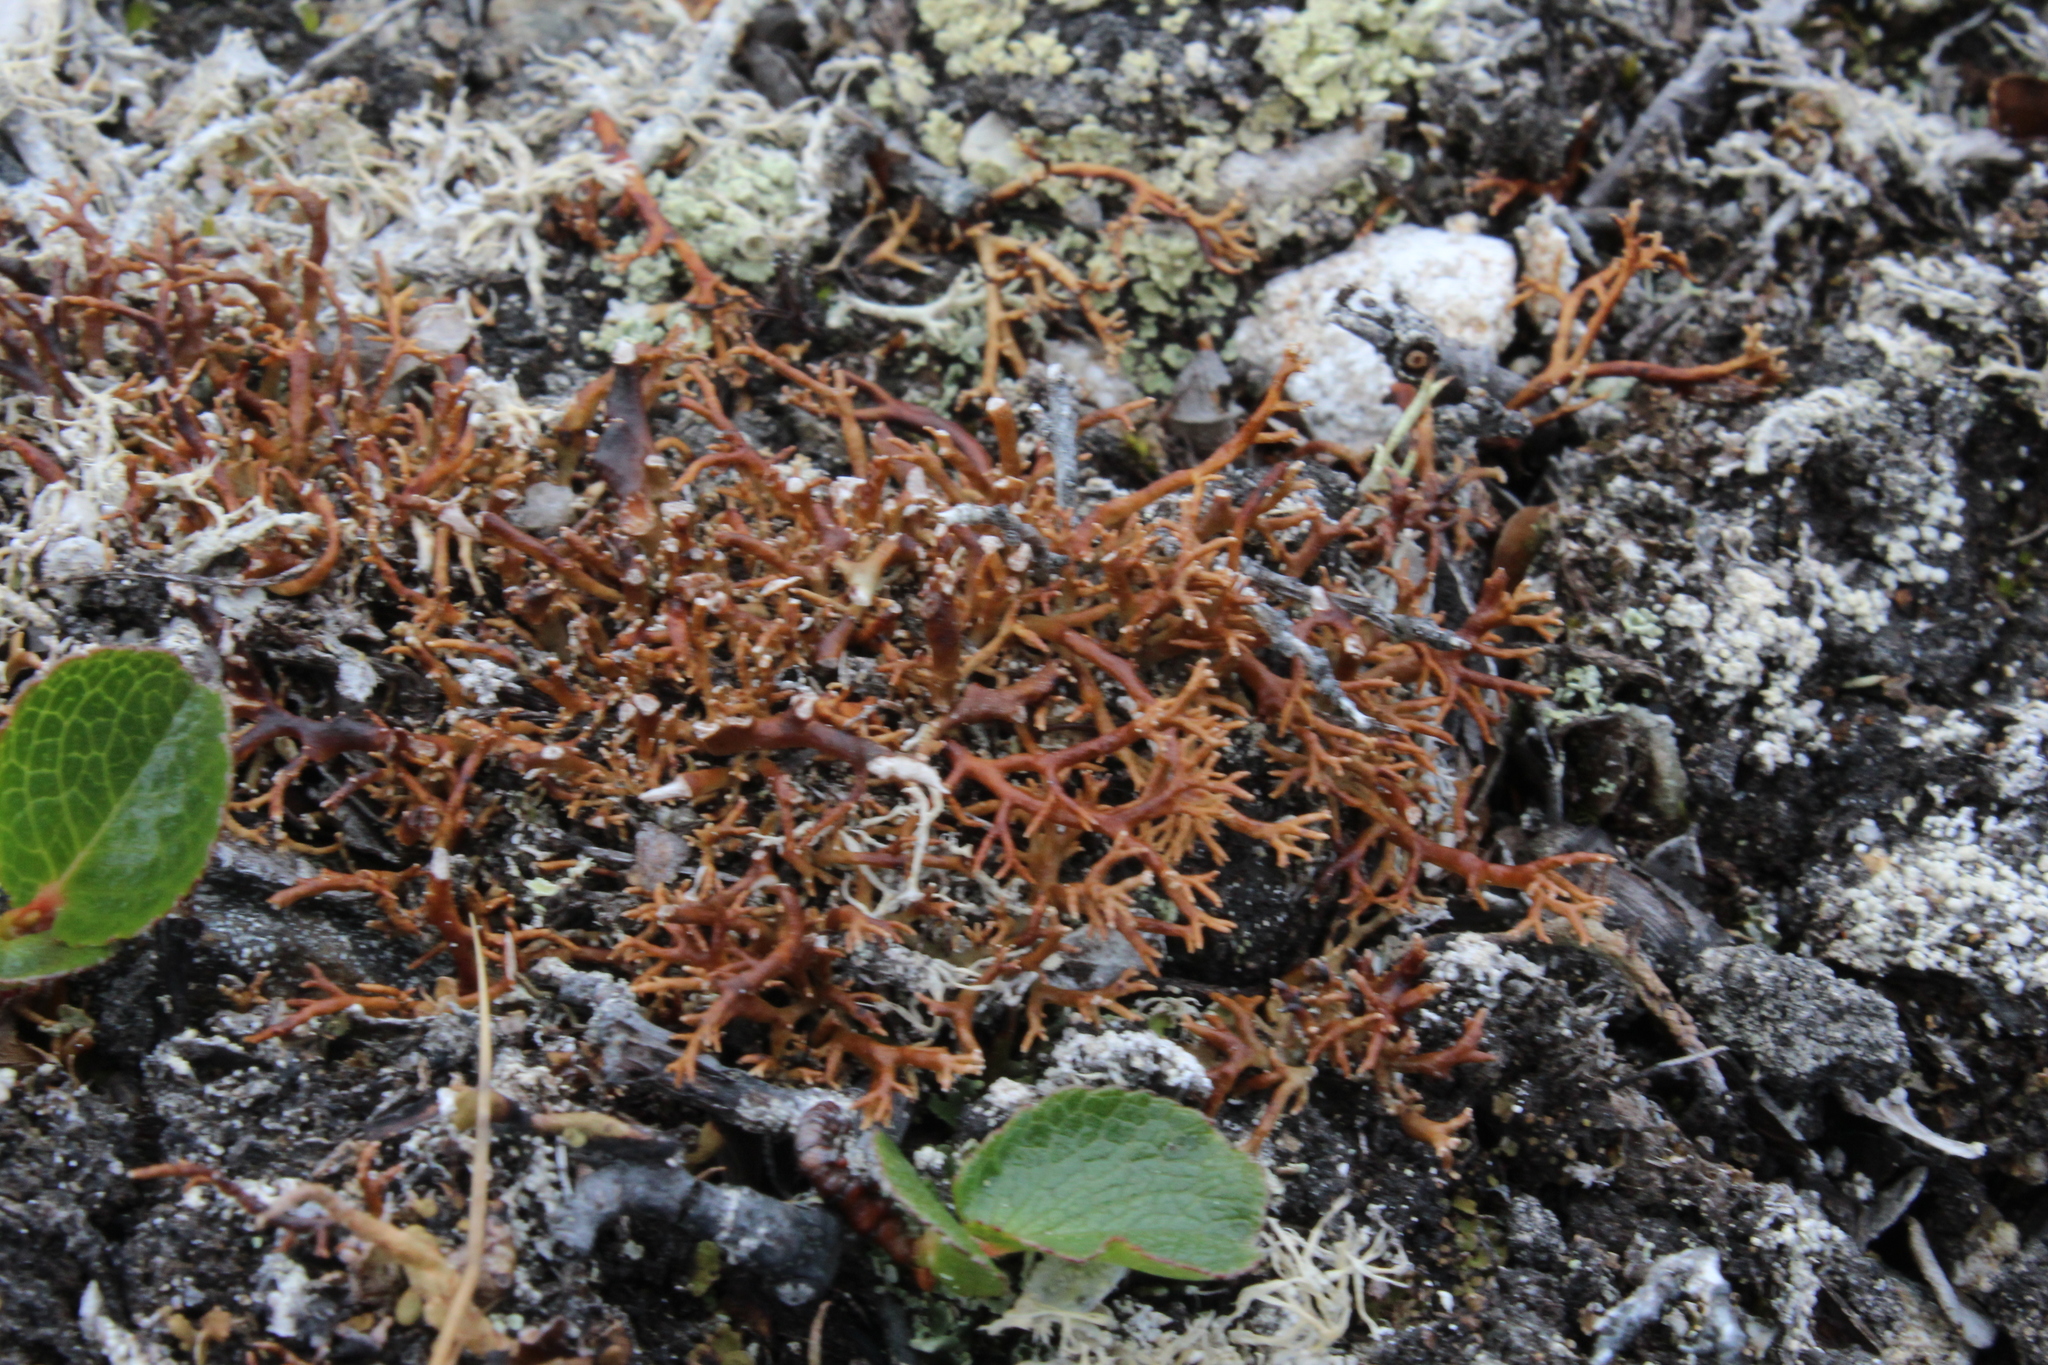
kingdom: Fungi
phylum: Ascomycota
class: Lecanoromycetes
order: Lecanorales
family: Sphaerophoraceae
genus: Sphaerophorus
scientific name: Sphaerophorus globosus
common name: Globe ball lichen
